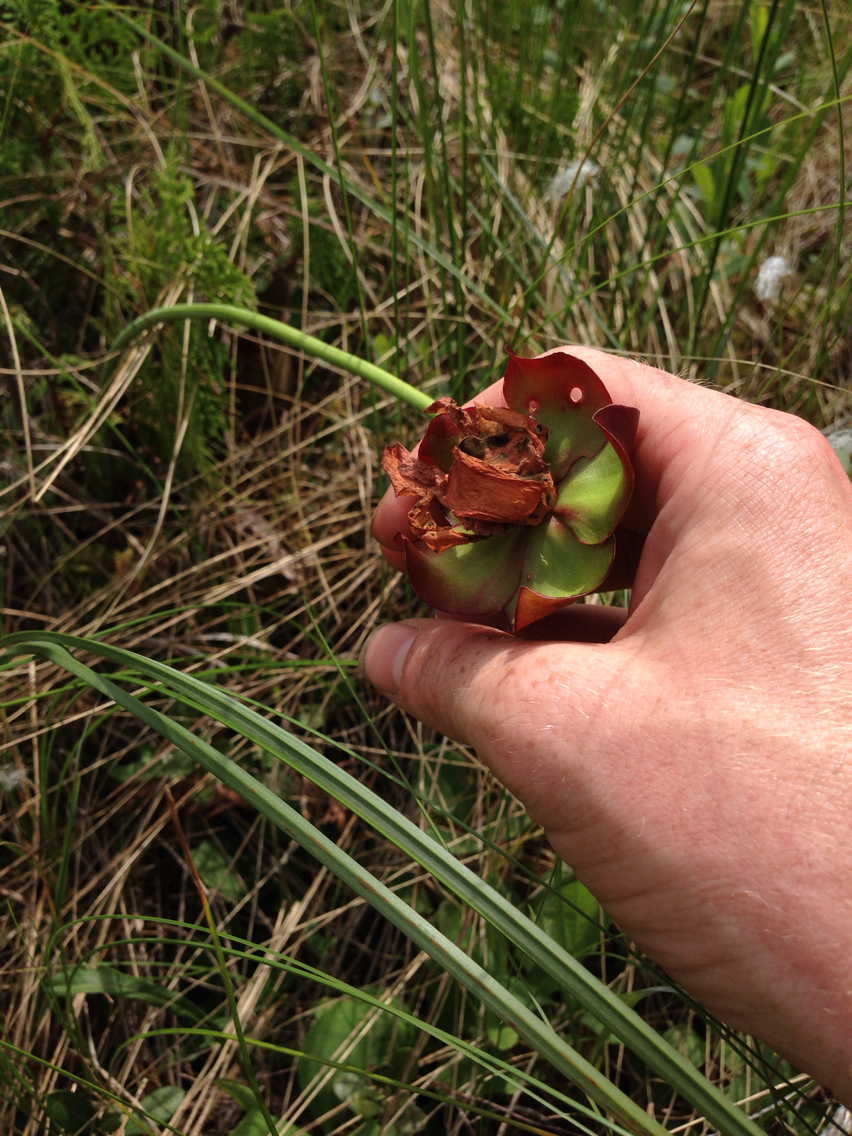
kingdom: Plantae
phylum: Tracheophyta
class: Magnoliopsida
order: Ericales
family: Sarraceniaceae
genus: Sarracenia
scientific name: Sarracenia purpurea
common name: Pitcherplant
